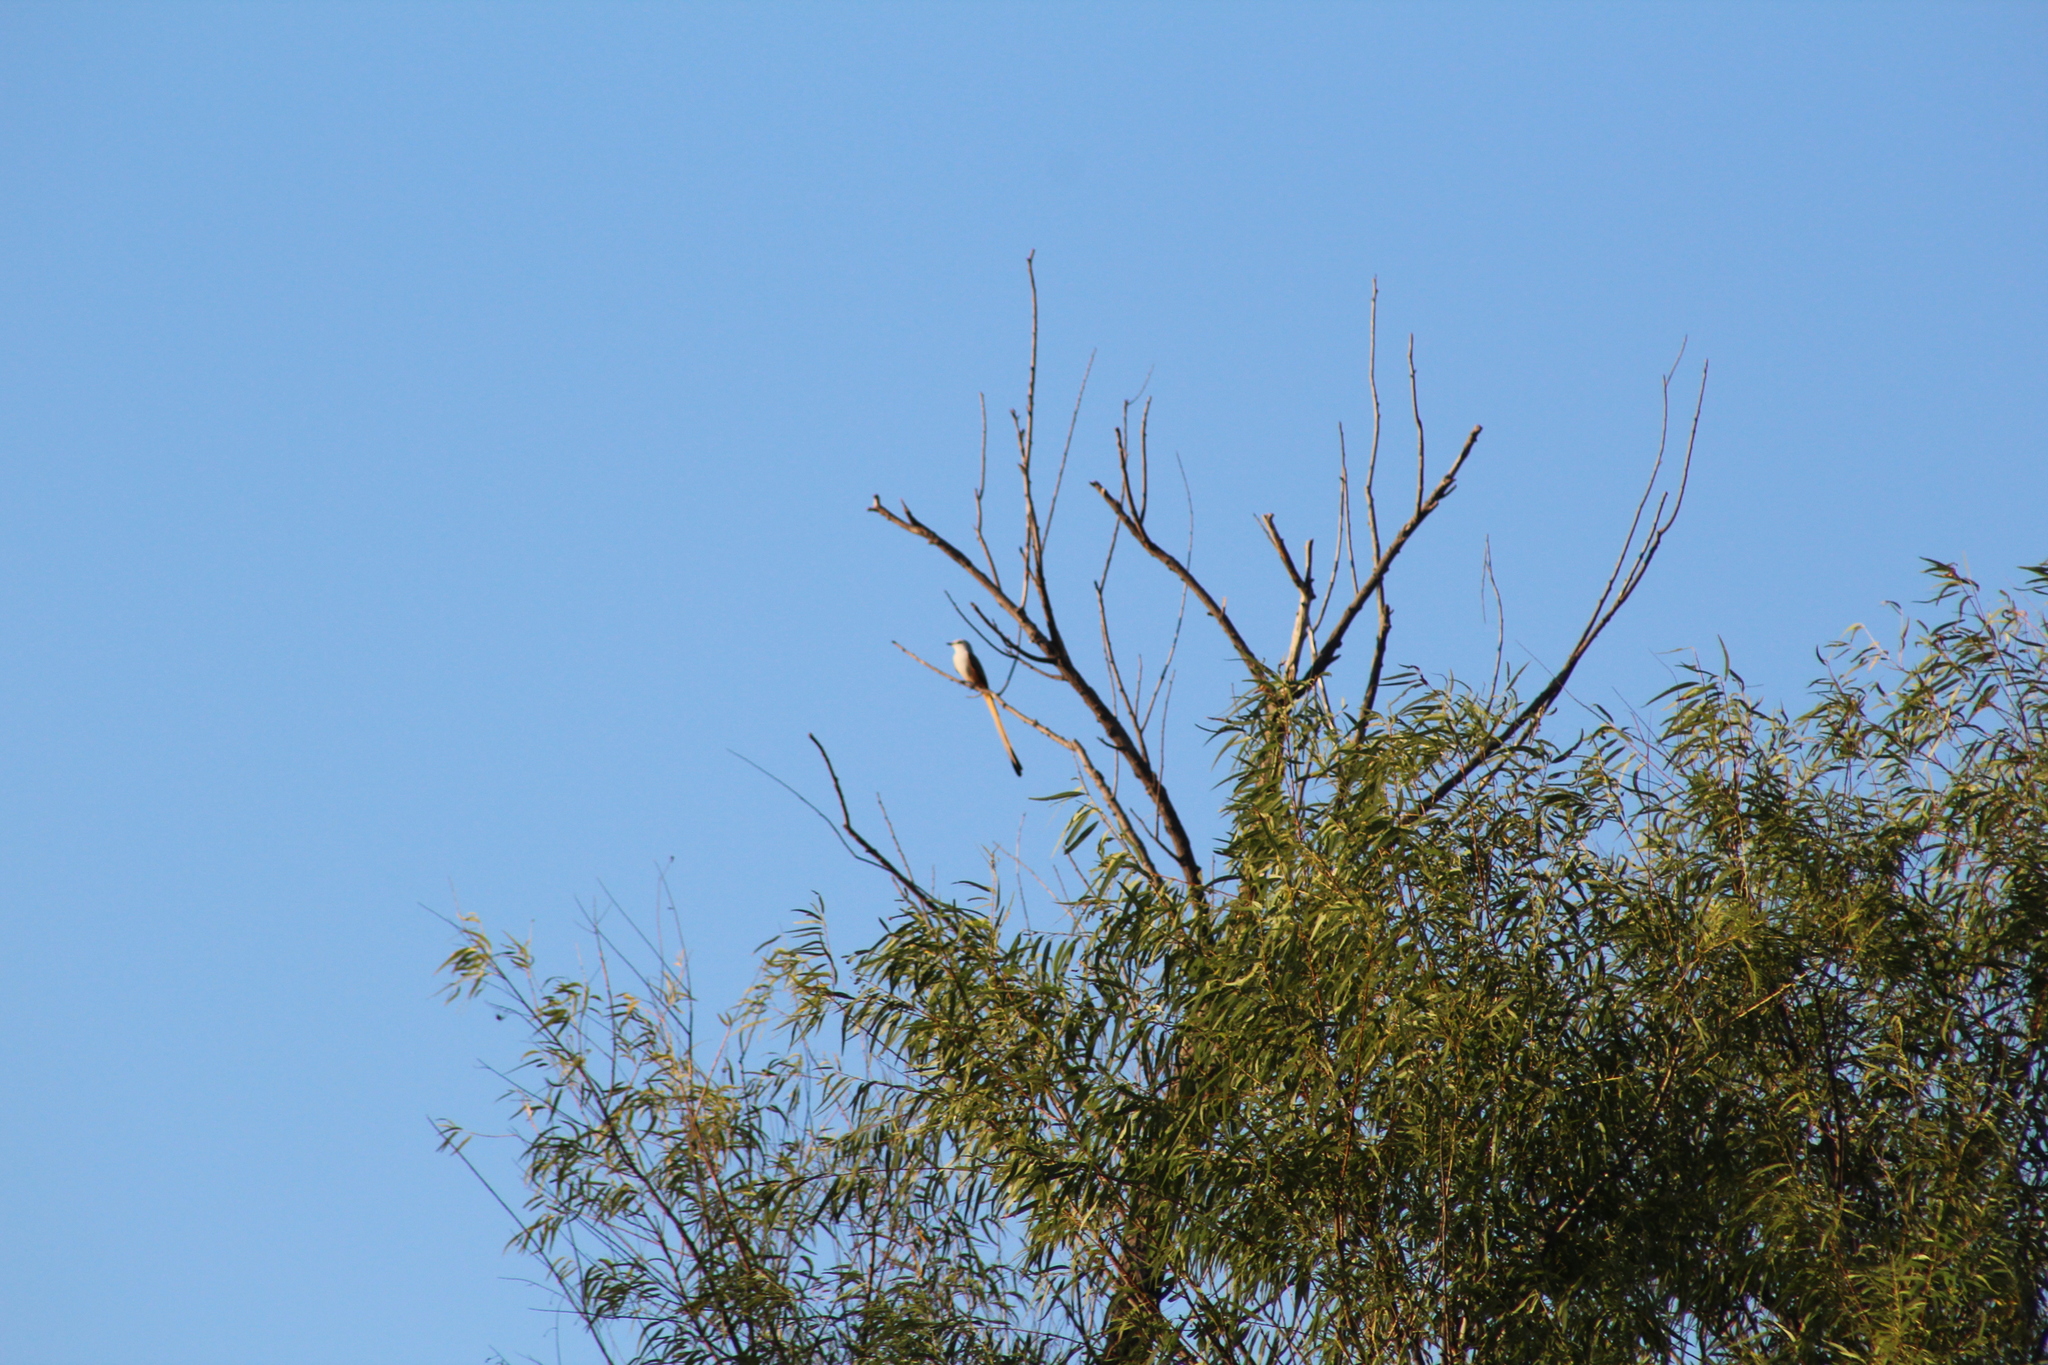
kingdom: Animalia
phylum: Chordata
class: Aves
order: Passeriformes
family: Tyrannidae
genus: Tyrannus
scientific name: Tyrannus forficatus
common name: Scissor-tailed flycatcher
